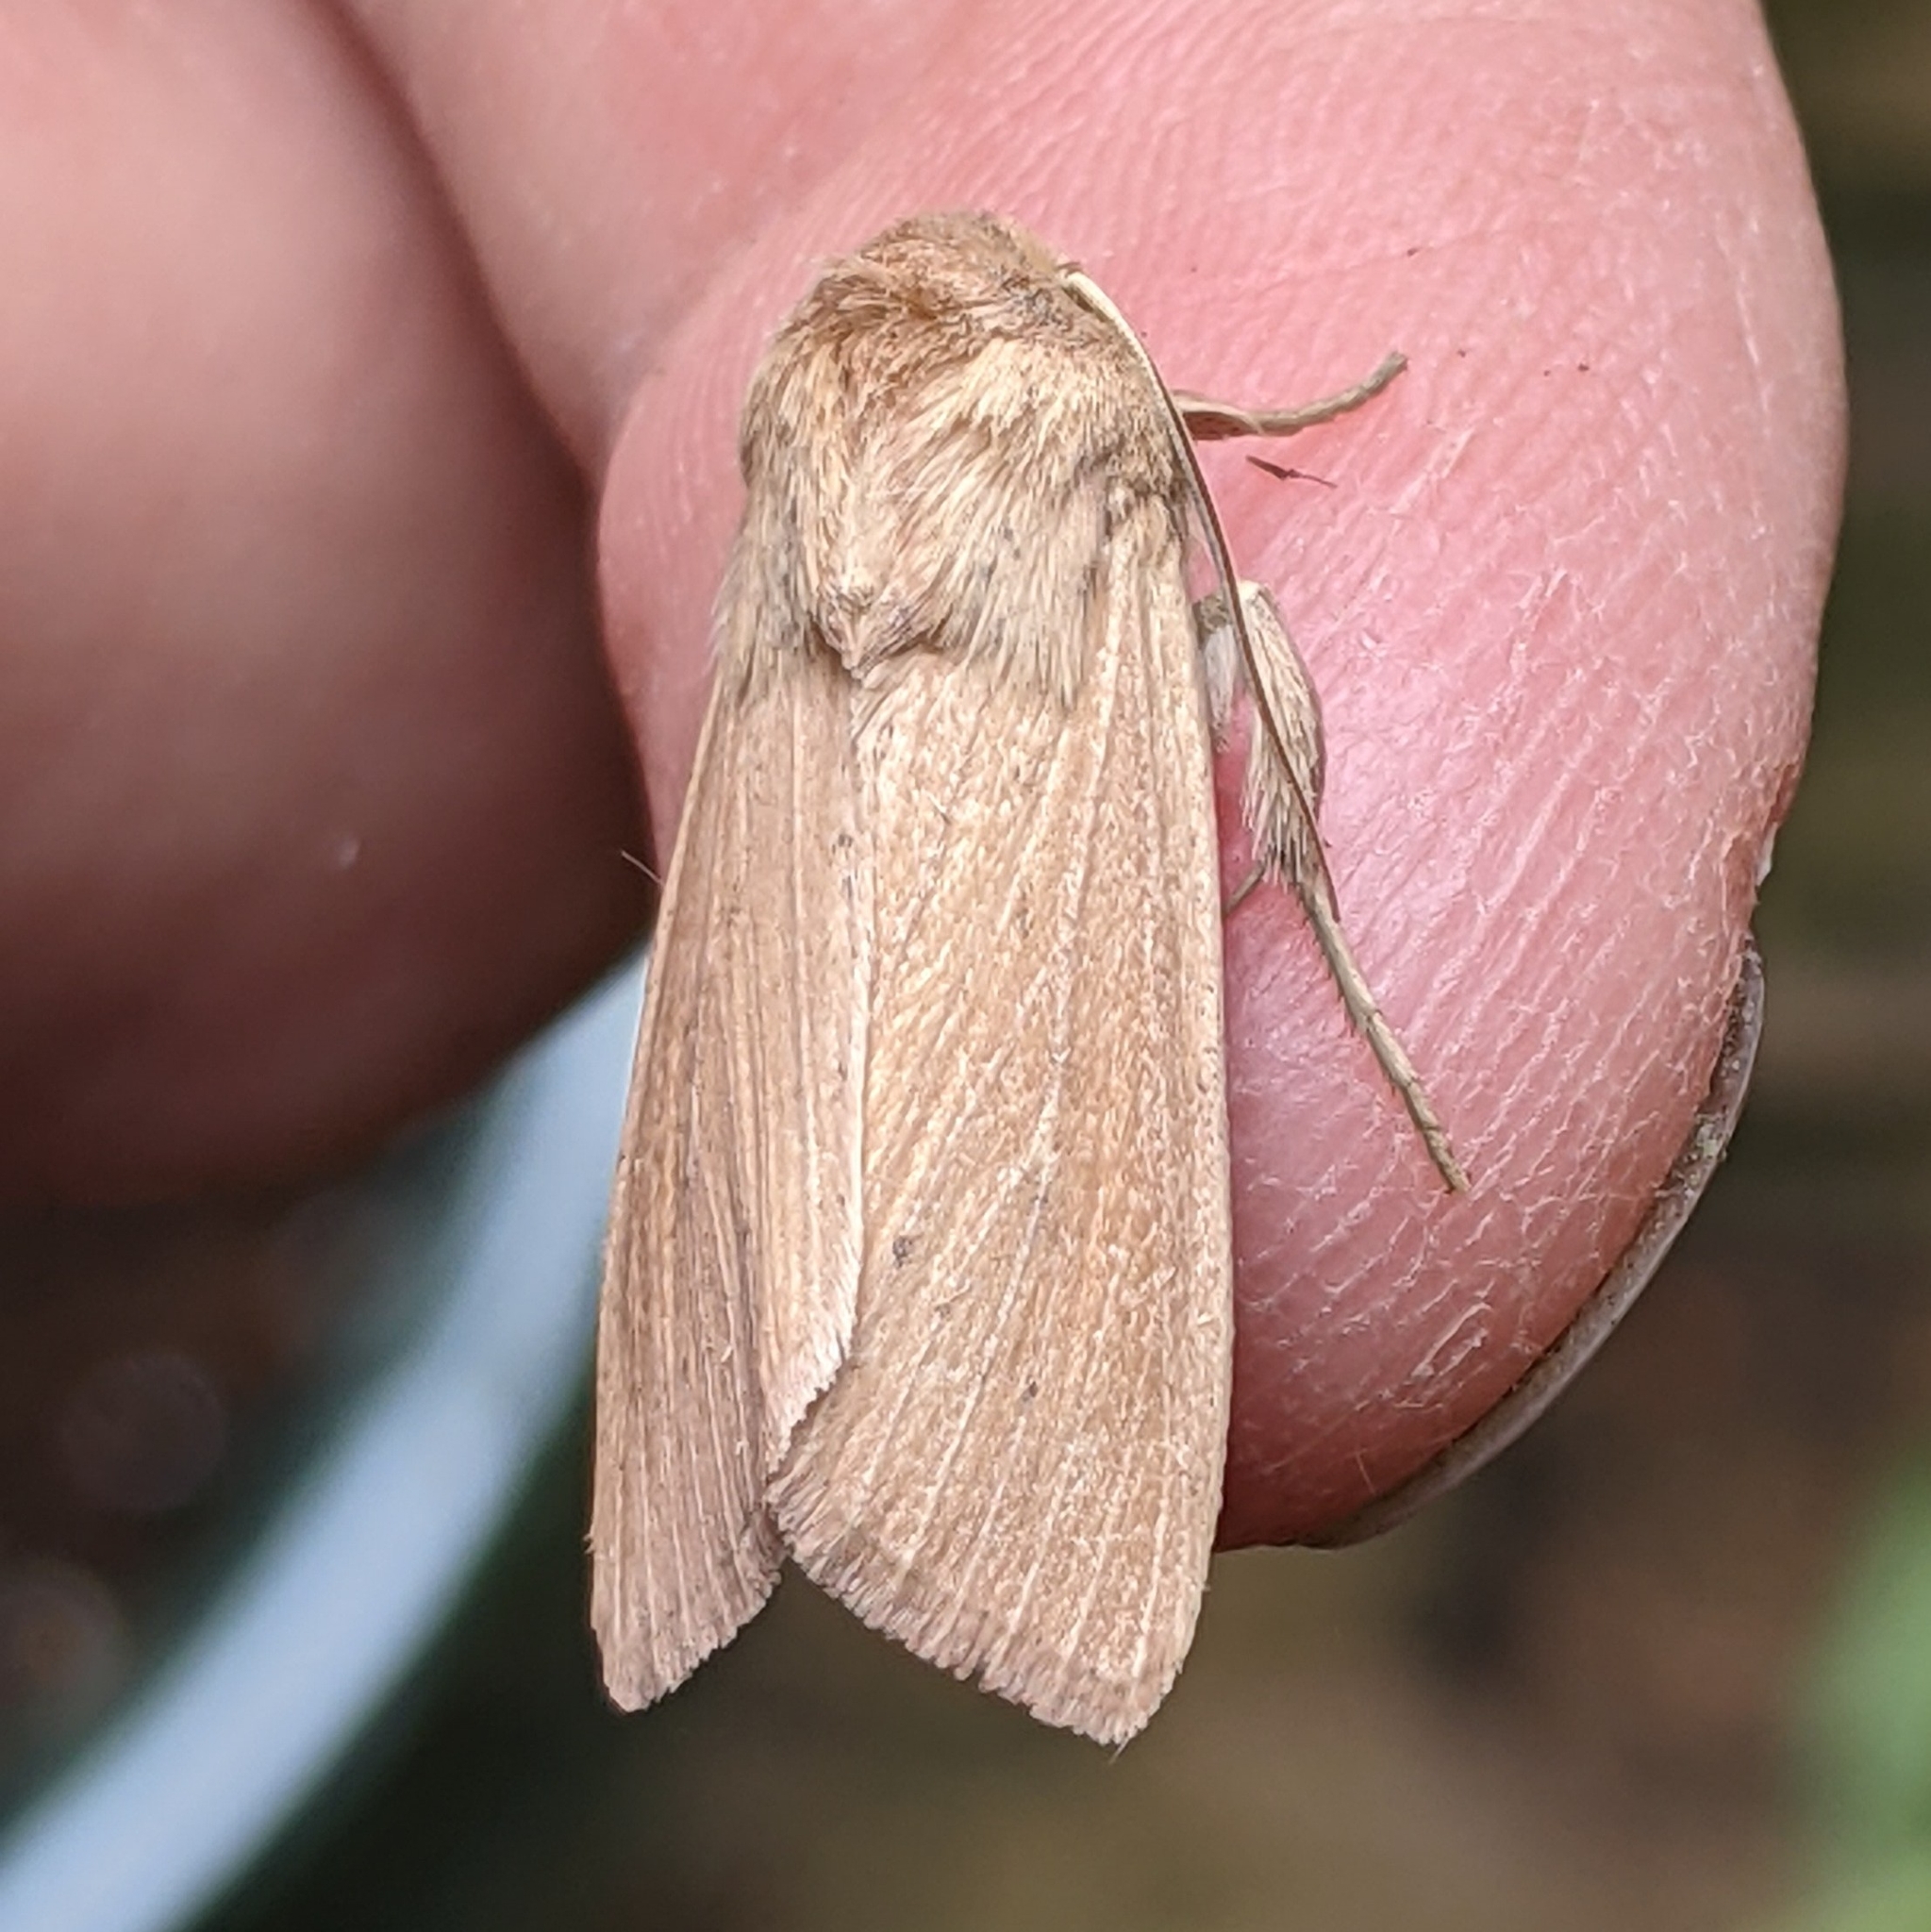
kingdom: Animalia
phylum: Arthropoda
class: Insecta
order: Lepidoptera
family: Noctuidae
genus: Leucania
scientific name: Leucania farcta
